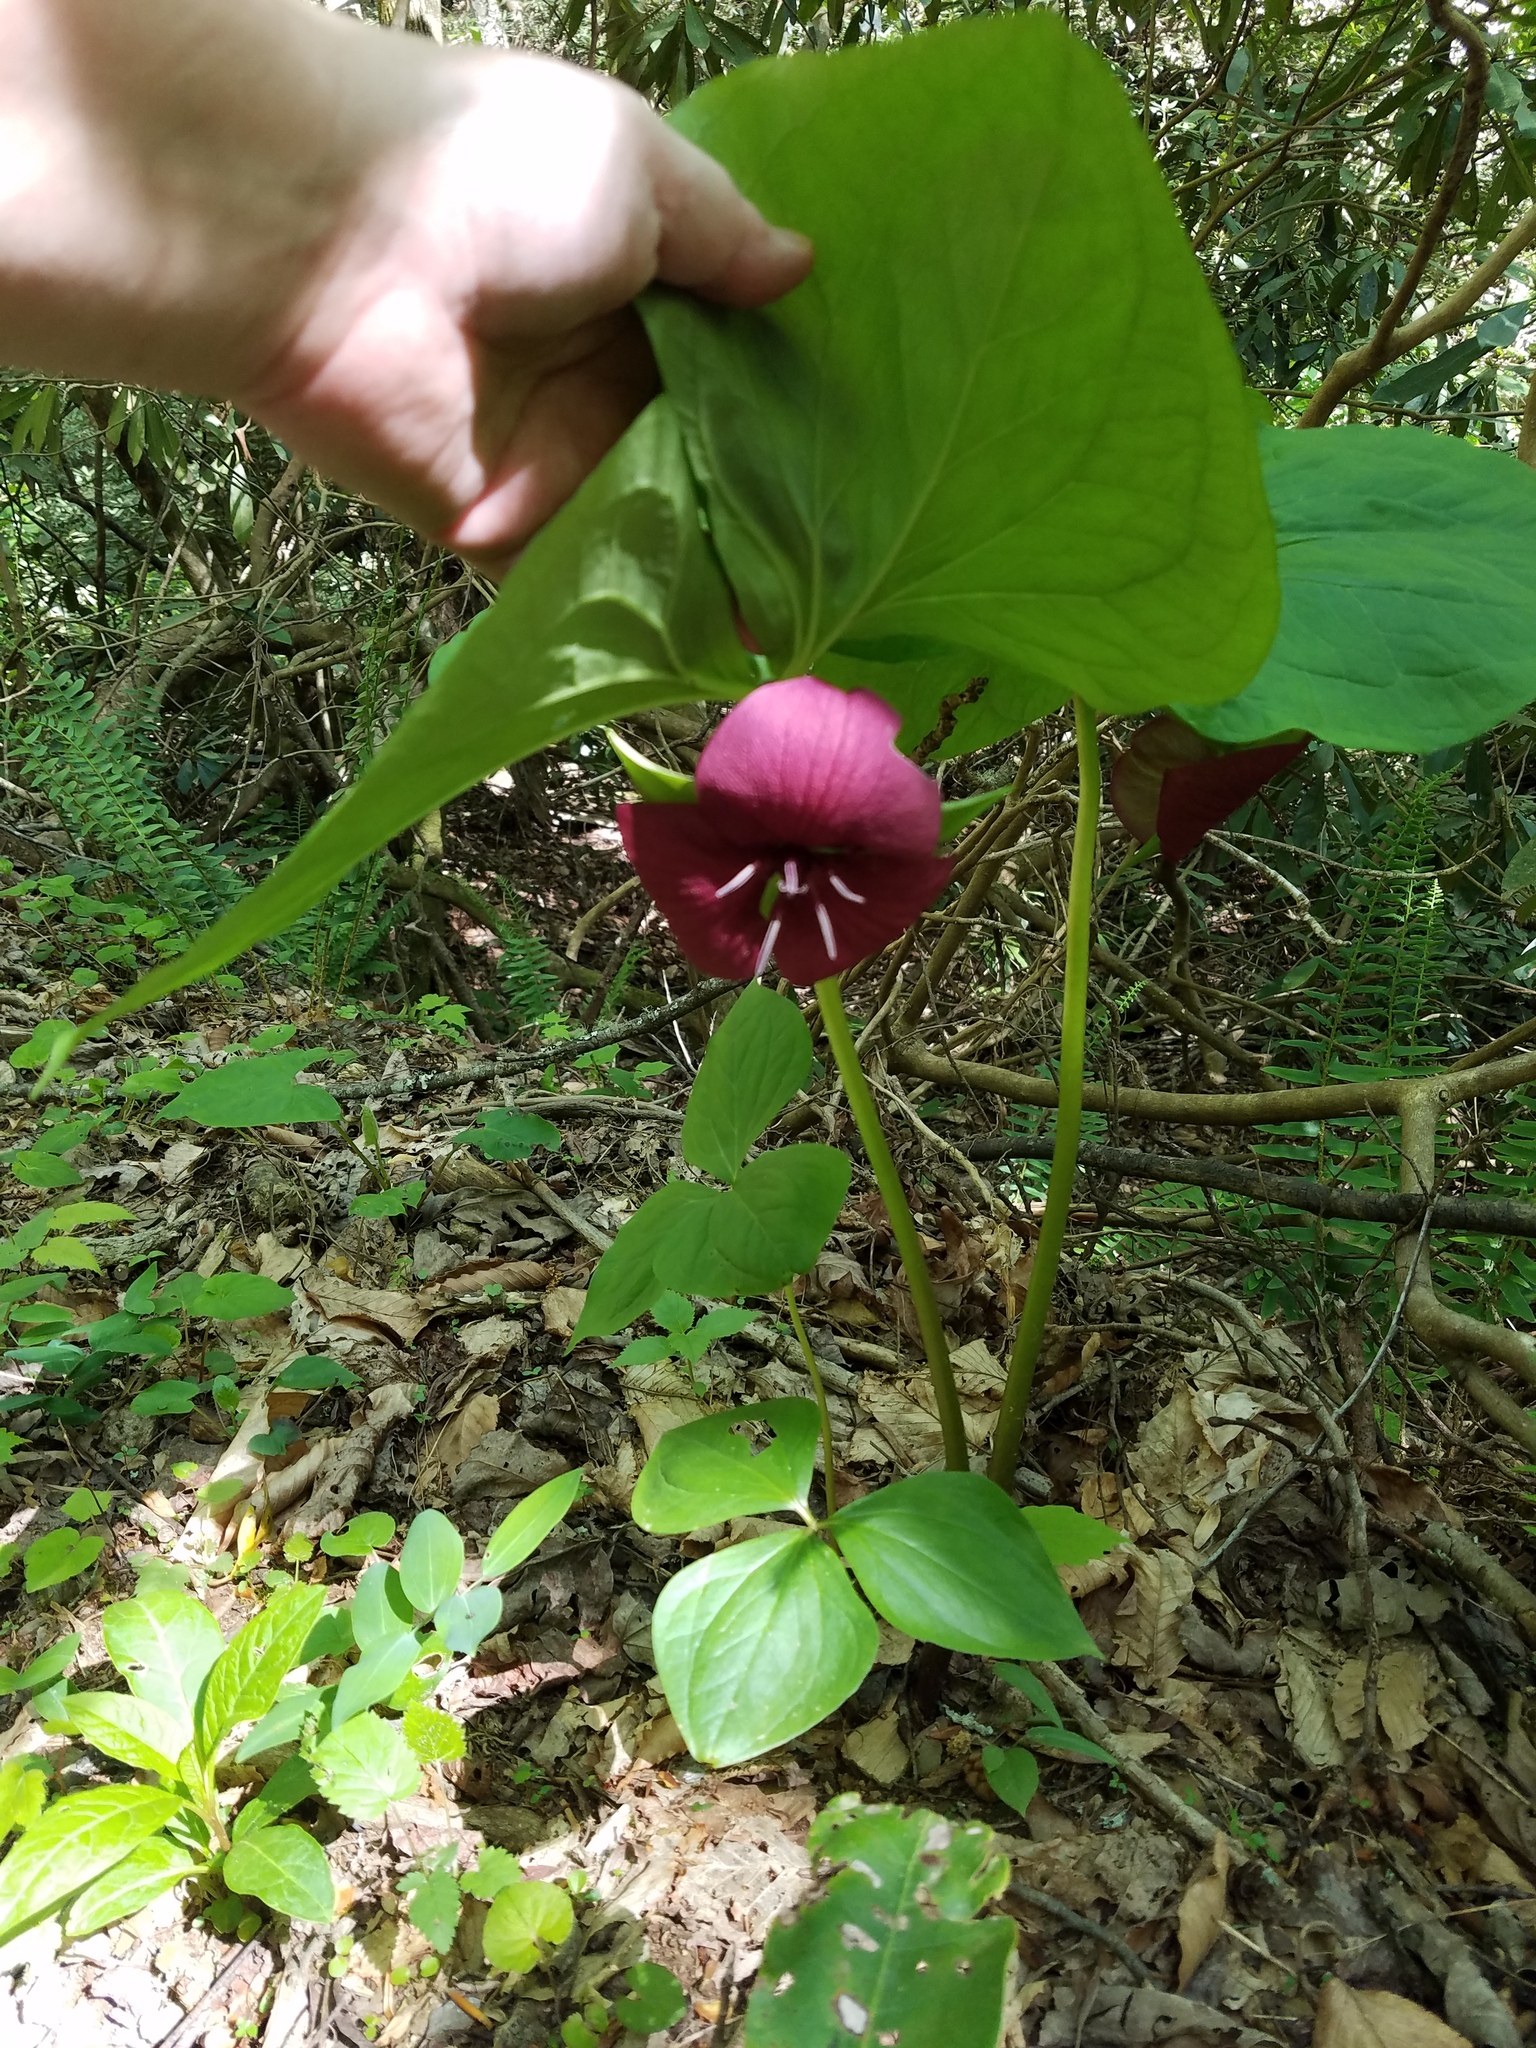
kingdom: Plantae
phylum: Tracheophyta
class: Liliopsida
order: Liliales
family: Melanthiaceae
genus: Trillium
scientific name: Trillium vaseyi
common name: Sweet trillium
